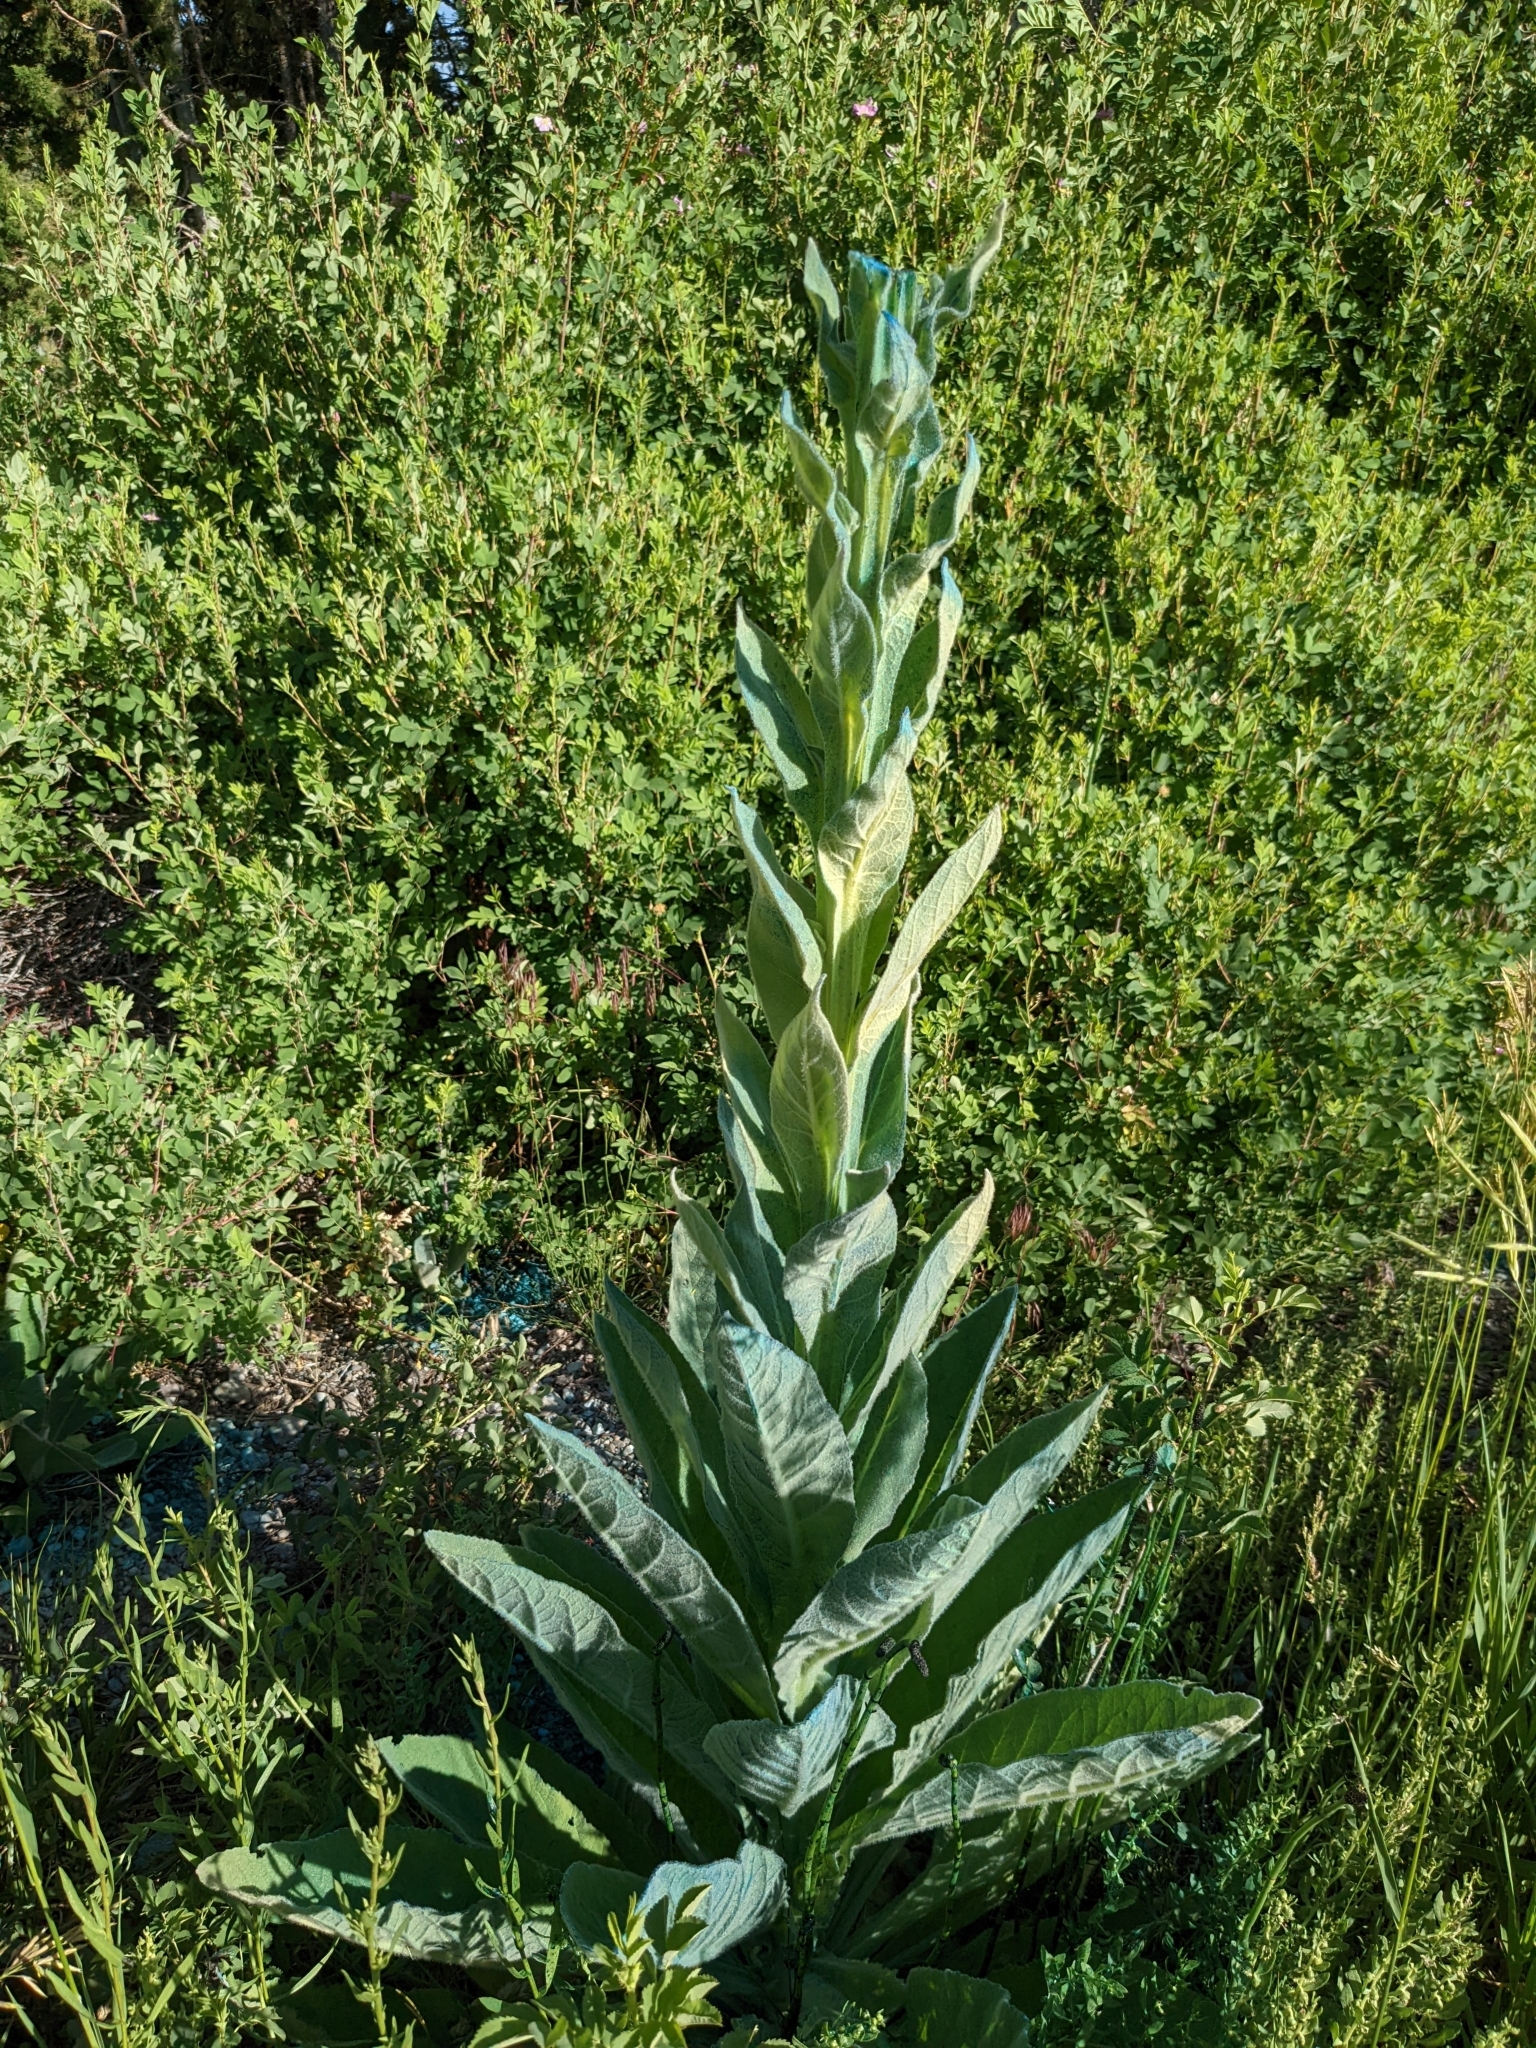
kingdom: Plantae
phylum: Tracheophyta
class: Magnoliopsida
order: Lamiales
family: Scrophulariaceae
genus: Verbascum
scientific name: Verbascum thapsus
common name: Common mullein
